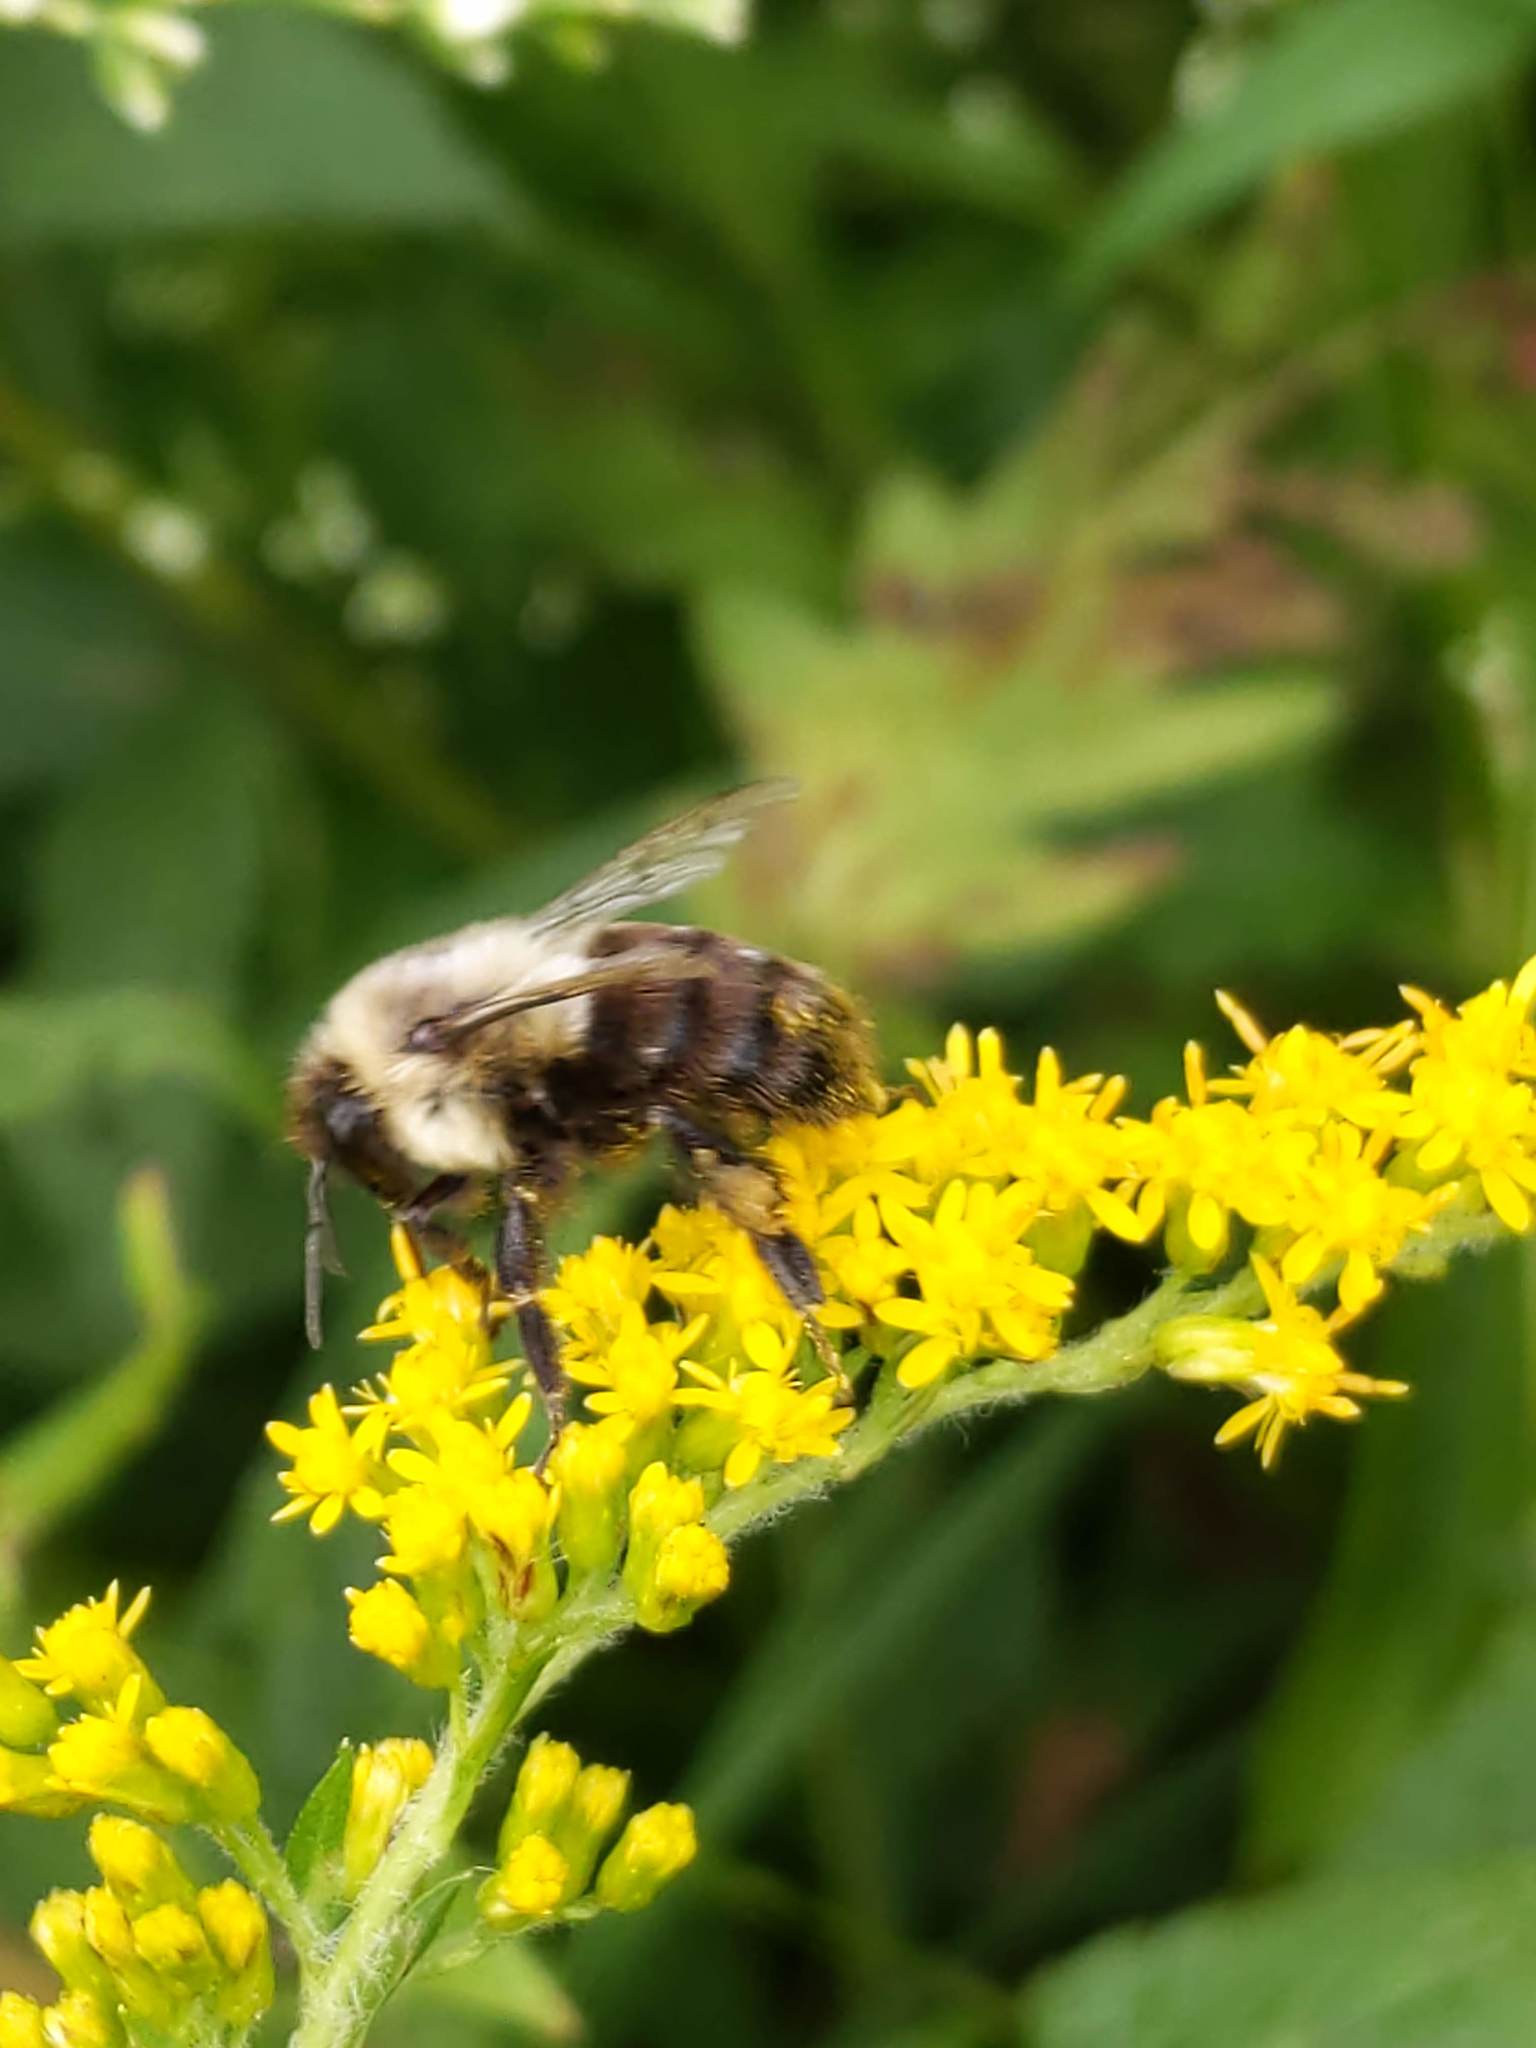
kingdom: Animalia
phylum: Arthropoda
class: Insecta
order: Hymenoptera
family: Apidae
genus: Bombus
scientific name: Bombus impatiens
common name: Common eastern bumble bee
